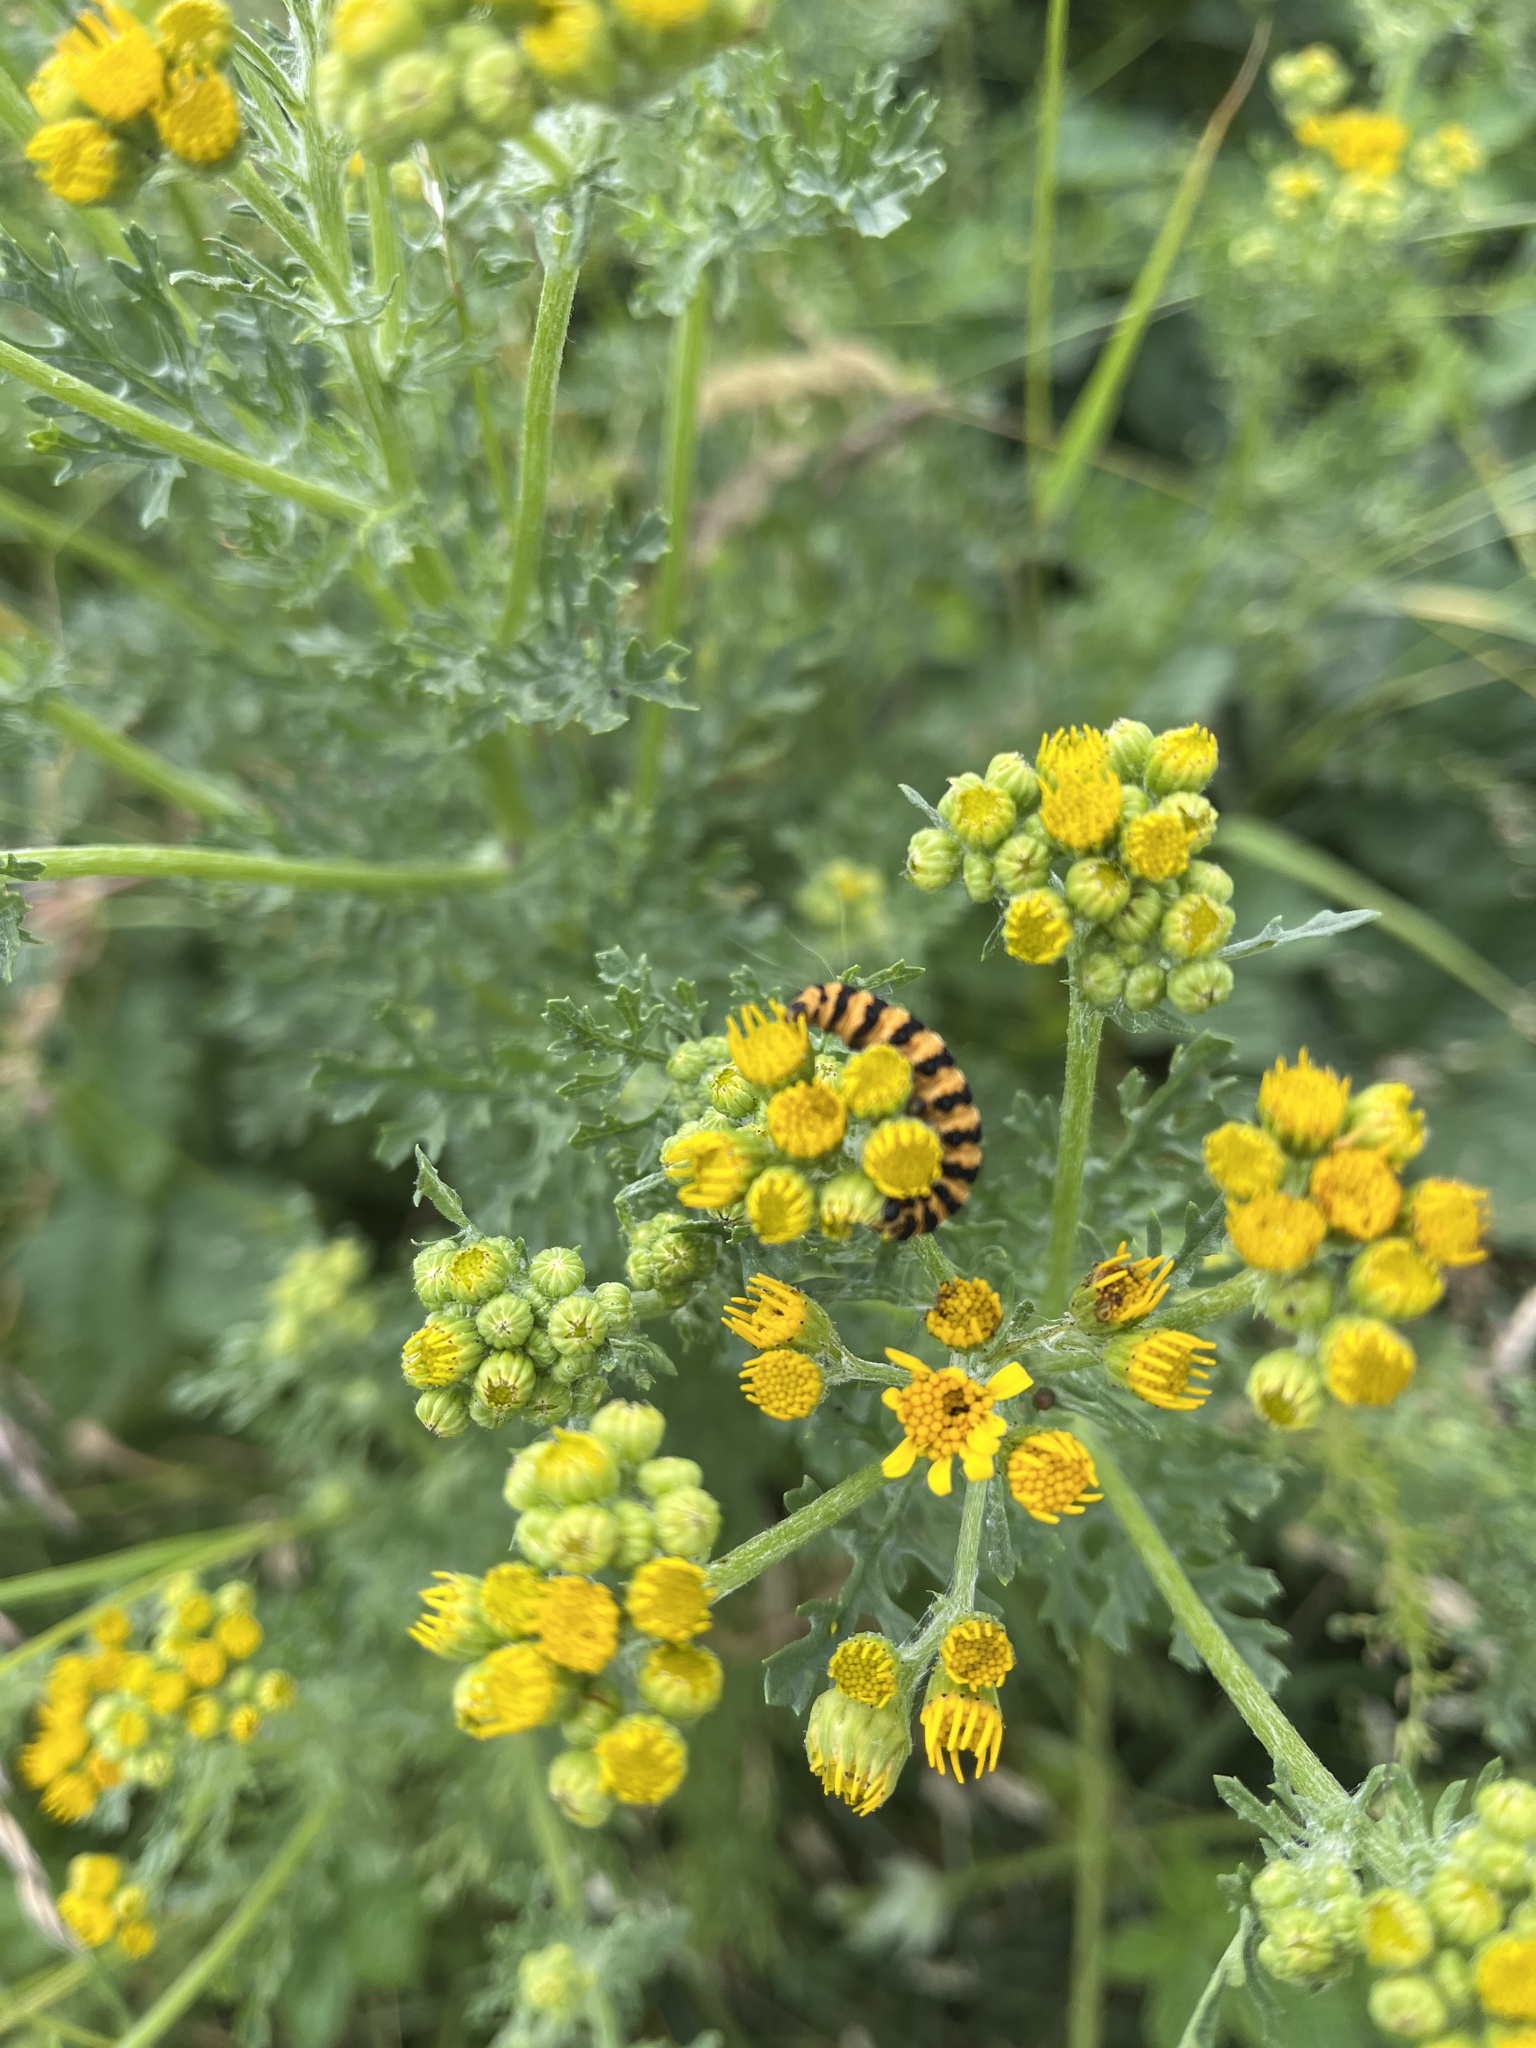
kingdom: Animalia
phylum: Arthropoda
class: Insecta
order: Lepidoptera
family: Erebidae
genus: Tyria
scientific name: Tyria jacobaeae
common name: Cinnabar
